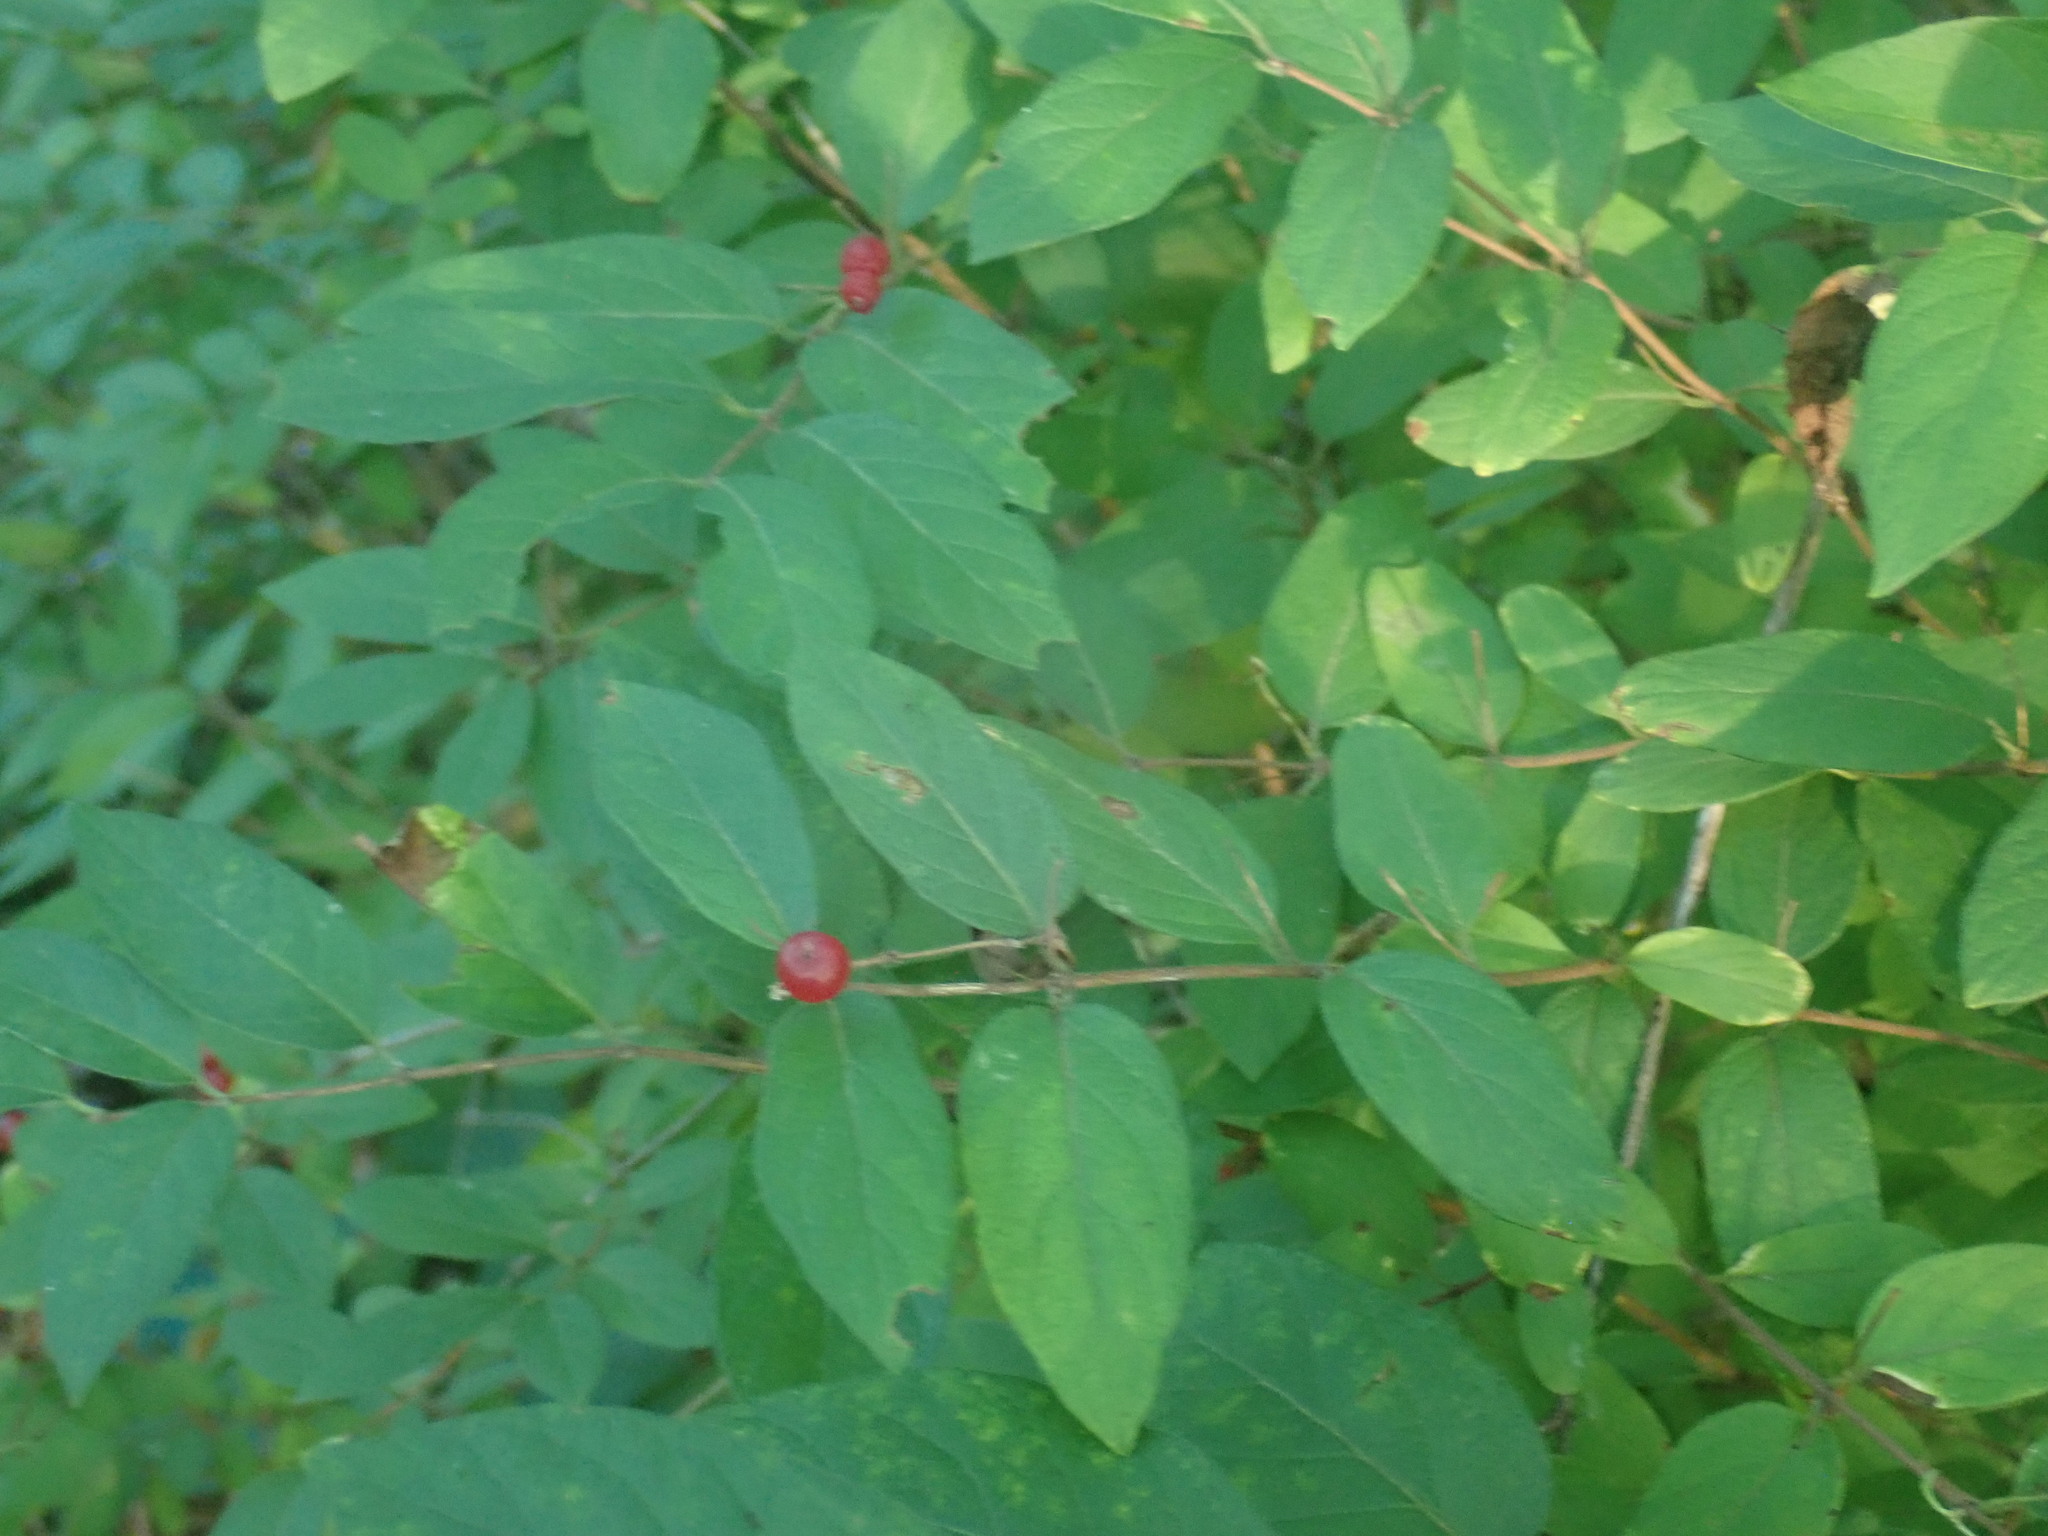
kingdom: Plantae
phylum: Tracheophyta
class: Magnoliopsida
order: Dipsacales
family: Caprifoliaceae
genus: Lonicera
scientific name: Lonicera
